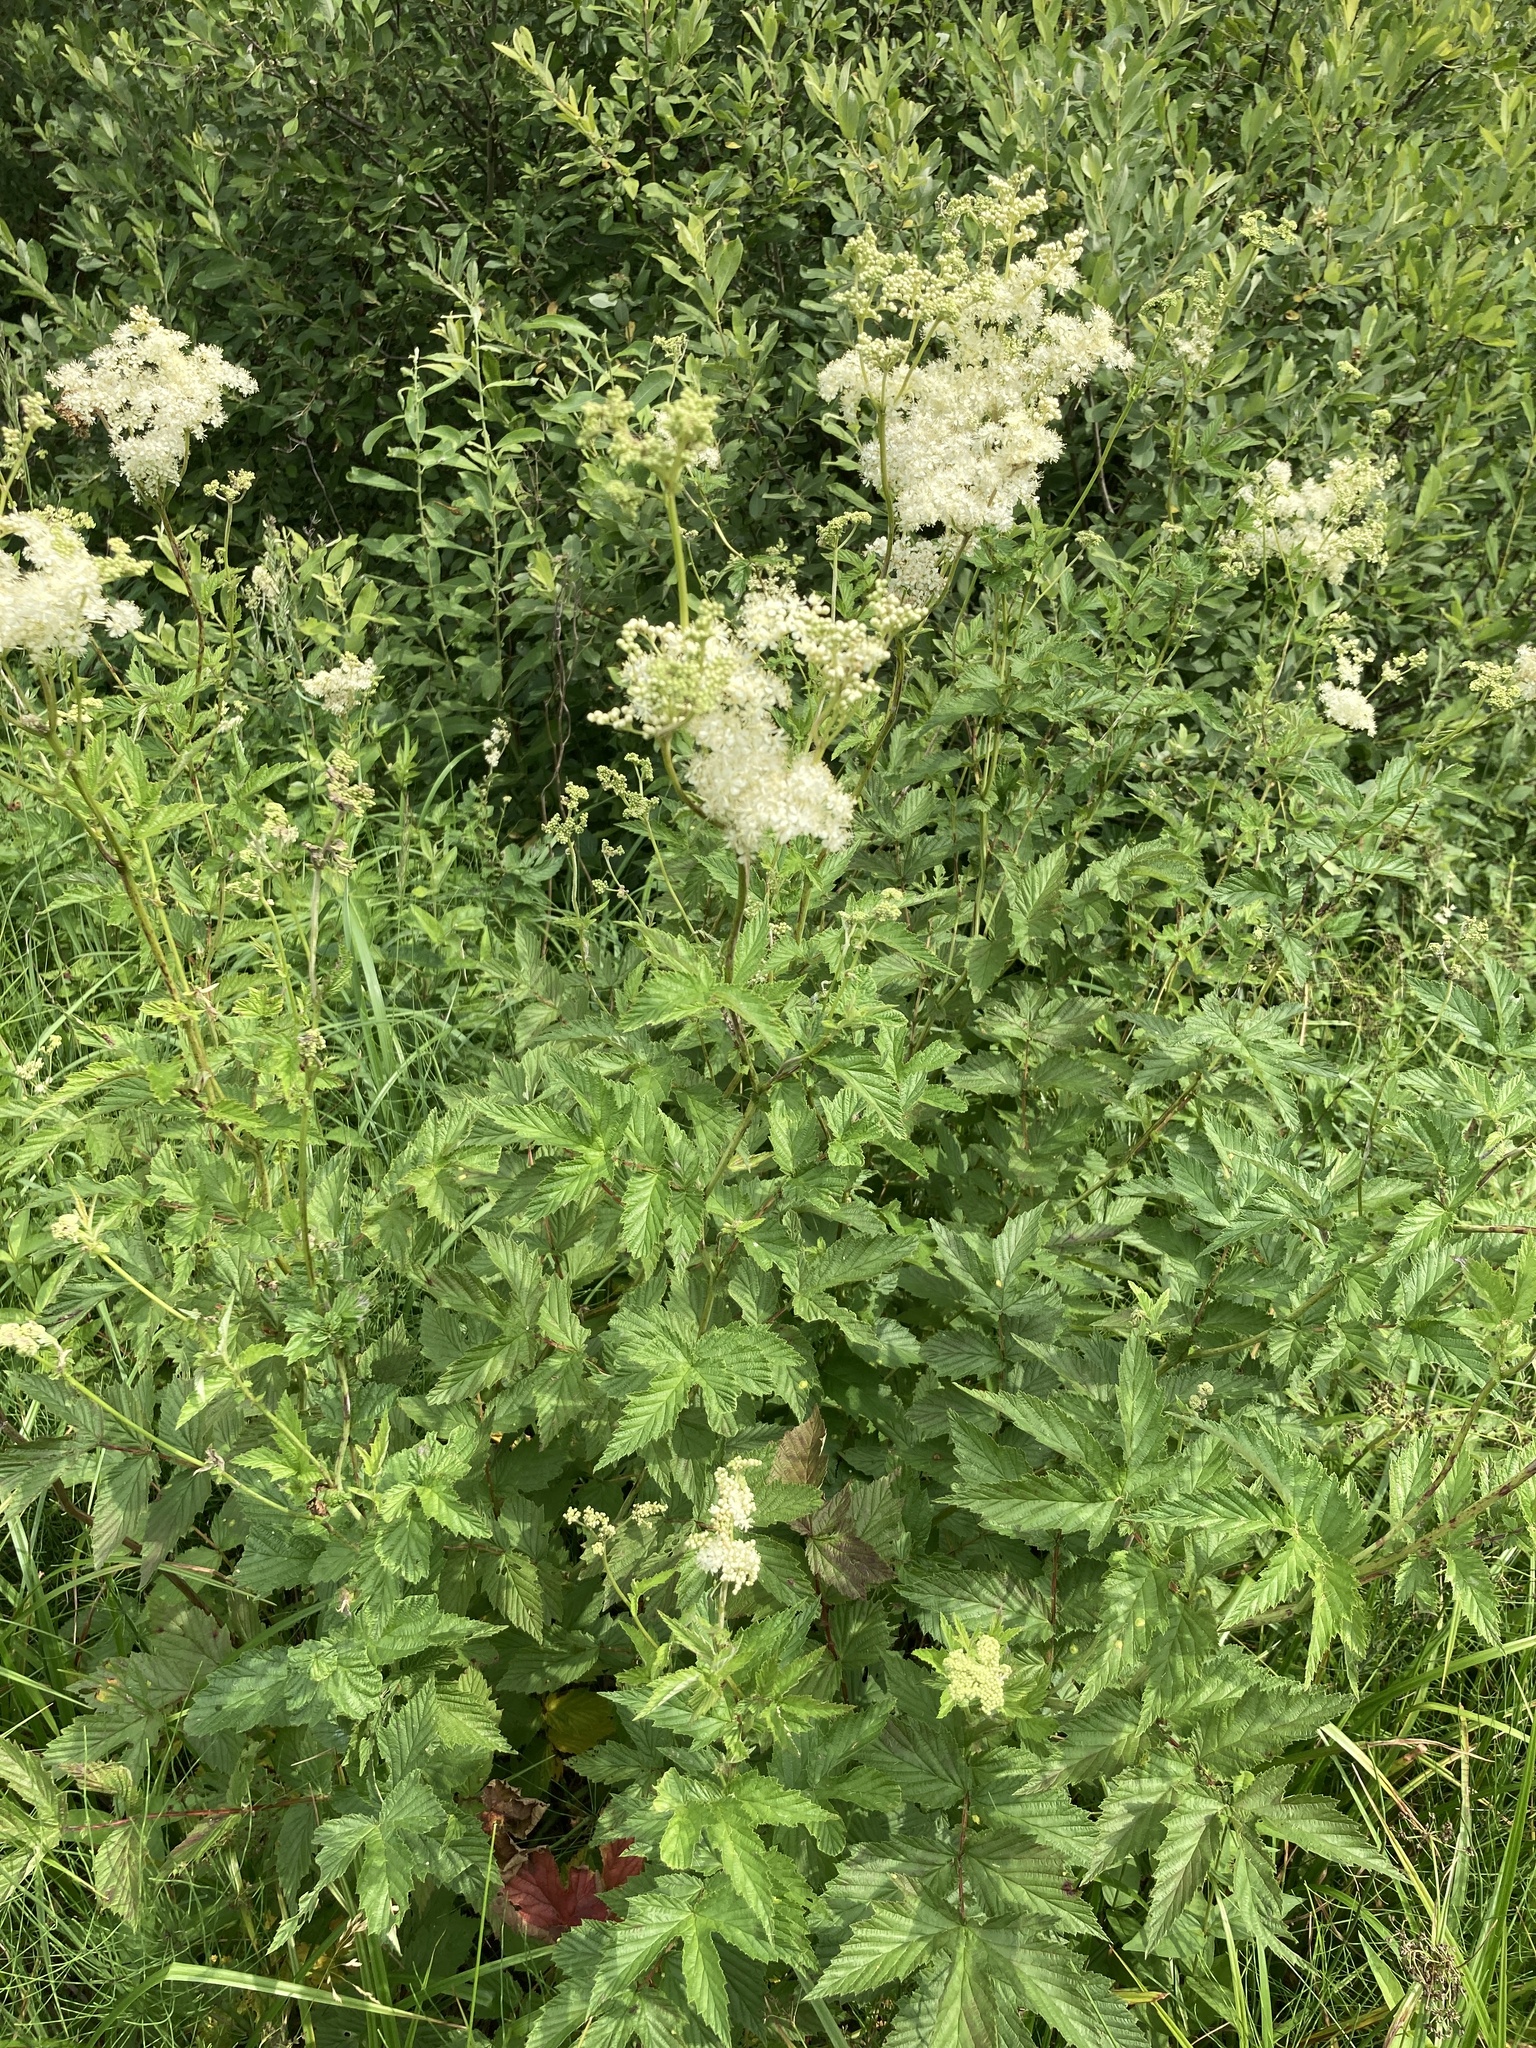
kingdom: Plantae
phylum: Tracheophyta
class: Magnoliopsida
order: Rosales
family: Rosaceae
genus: Filipendula
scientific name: Filipendula ulmaria
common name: Meadowsweet
